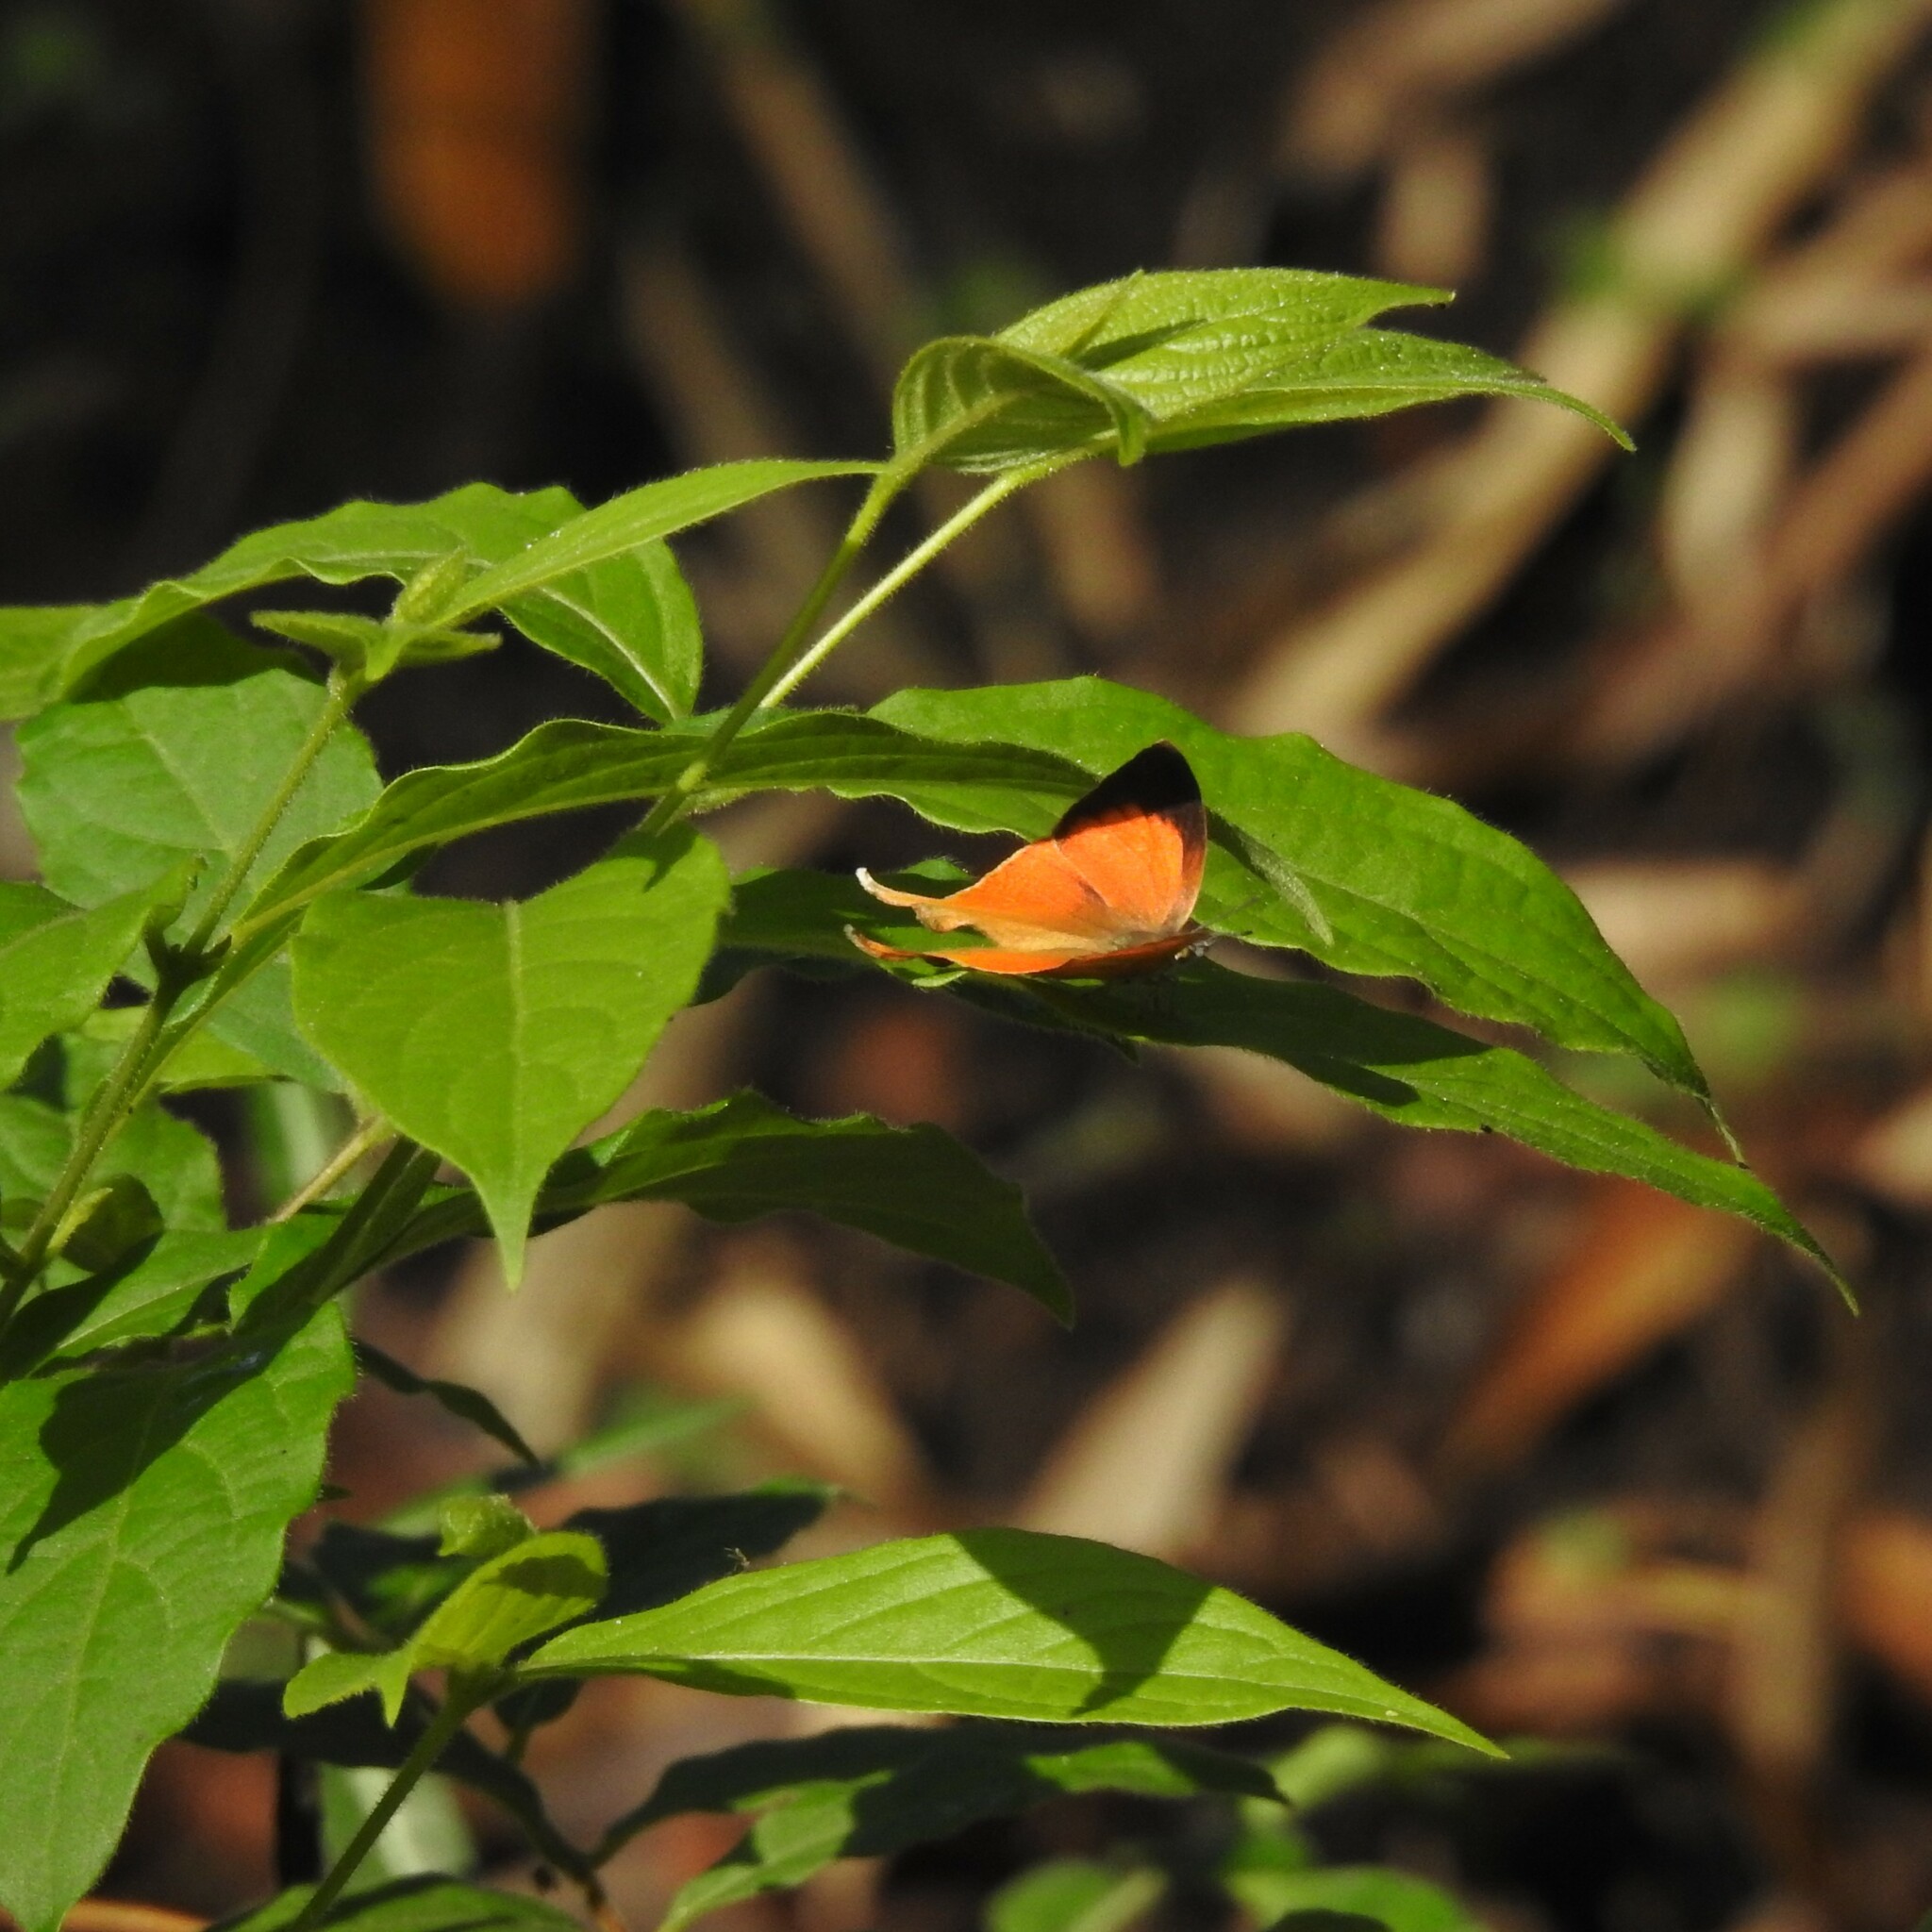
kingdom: Animalia
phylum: Arthropoda
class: Insecta
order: Lepidoptera
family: Lycaenidae
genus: Loxura
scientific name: Loxura atymnus
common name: Common yamfly
